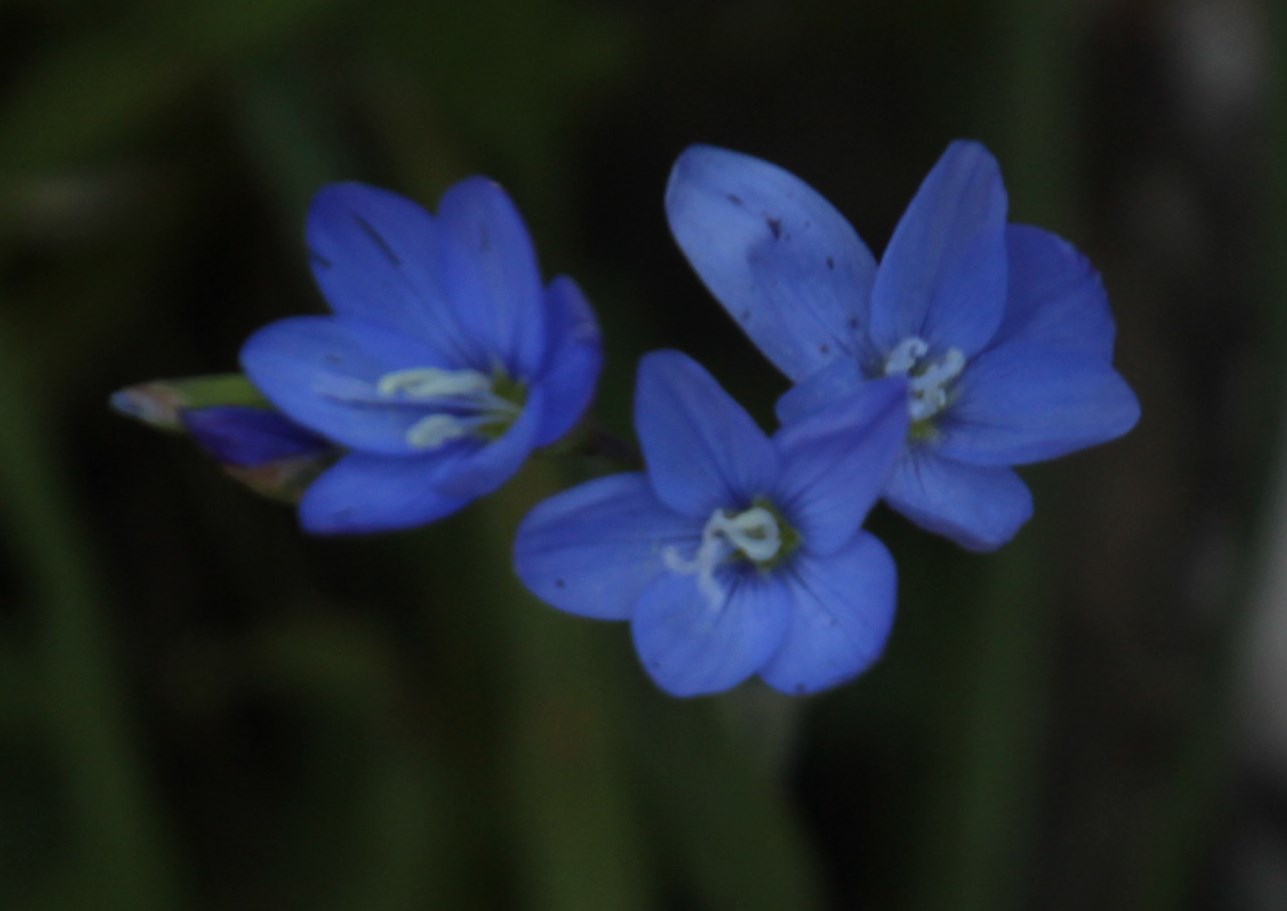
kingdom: Plantae
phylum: Tracheophyta
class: Liliopsida
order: Asparagales
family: Iridaceae
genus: Geissorhiza
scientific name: Geissorhiza aspera
